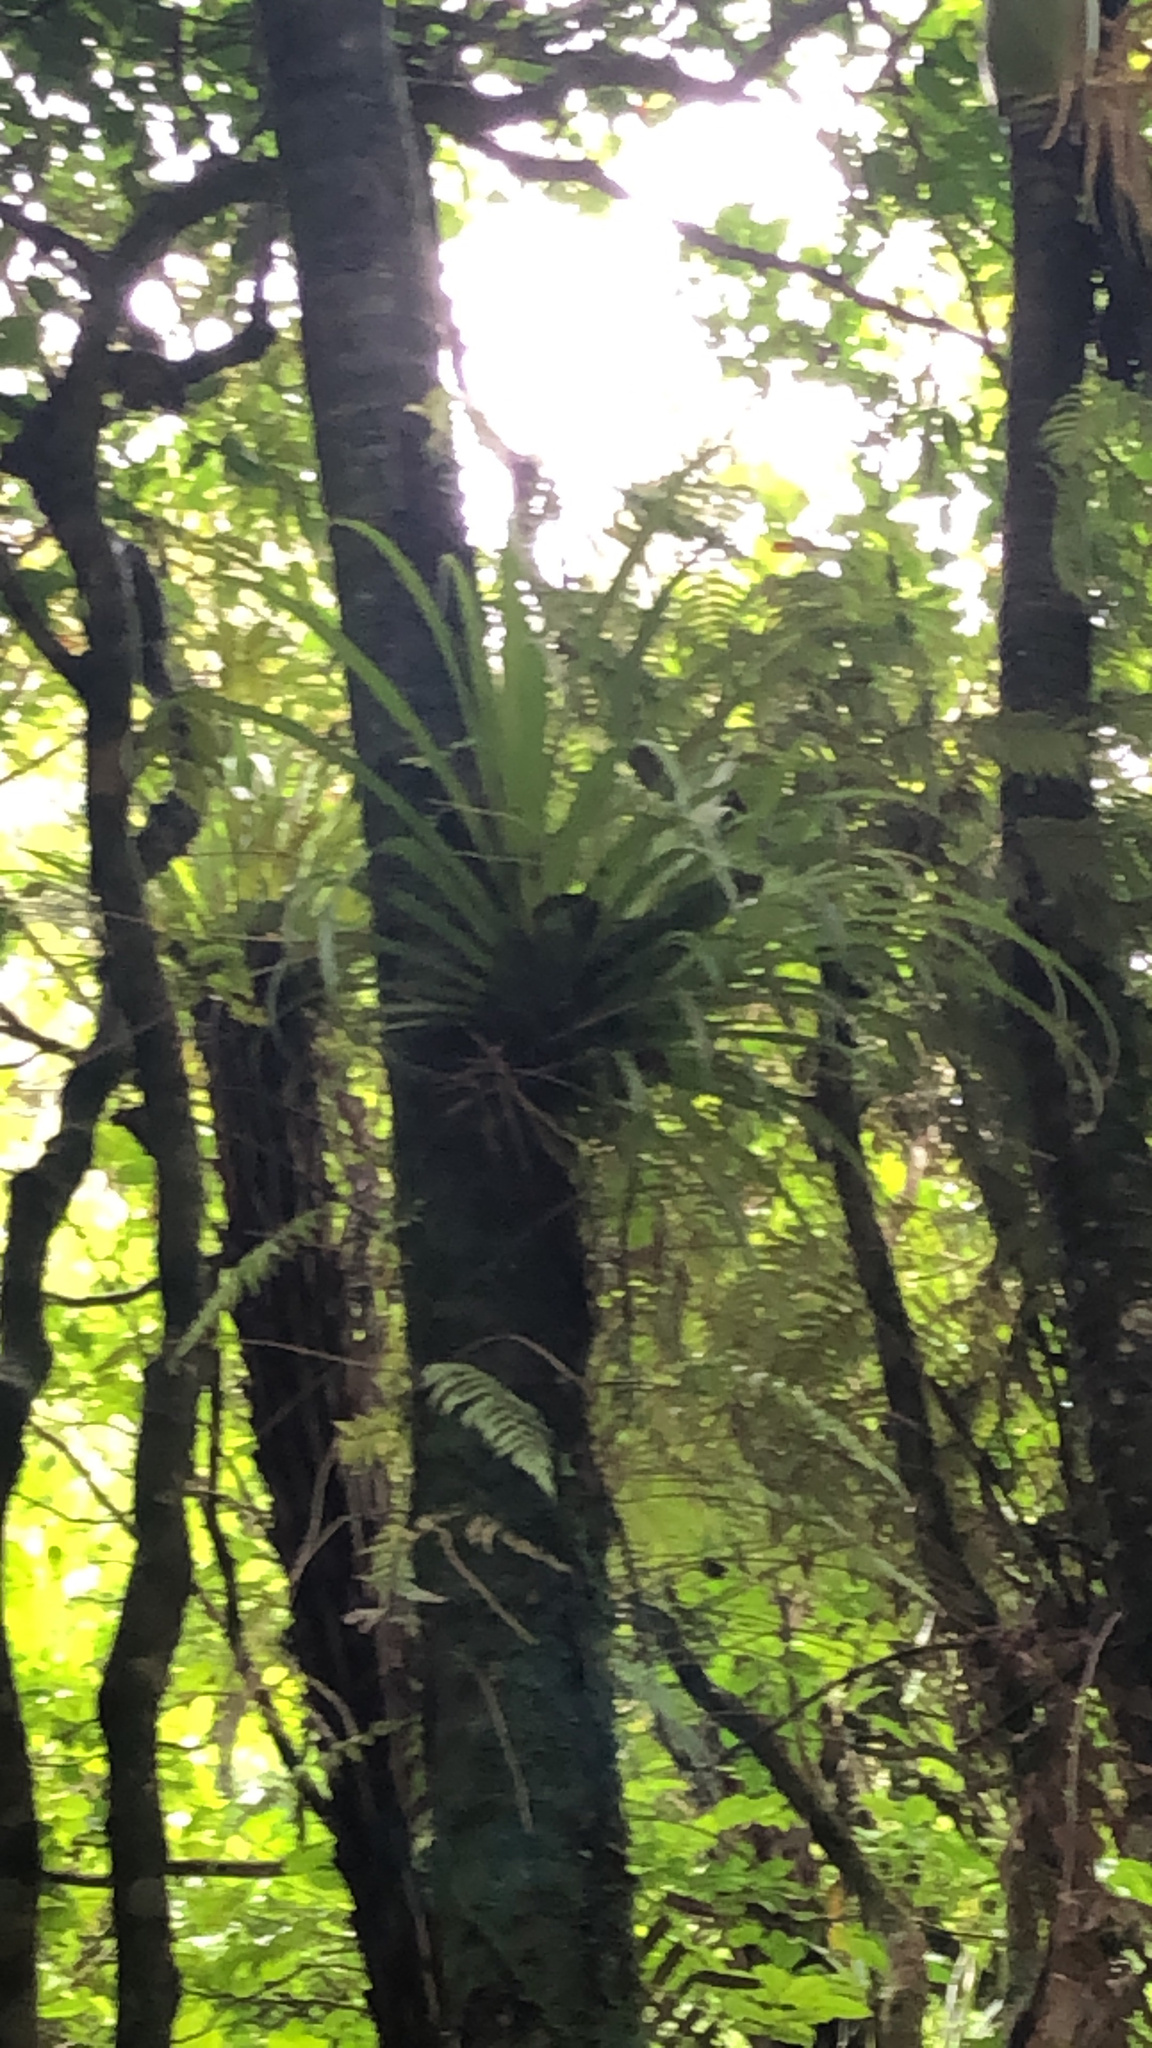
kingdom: Plantae
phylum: Tracheophyta
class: Liliopsida
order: Asparagales
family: Asteliaceae
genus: Astelia
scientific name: Astelia hastata
